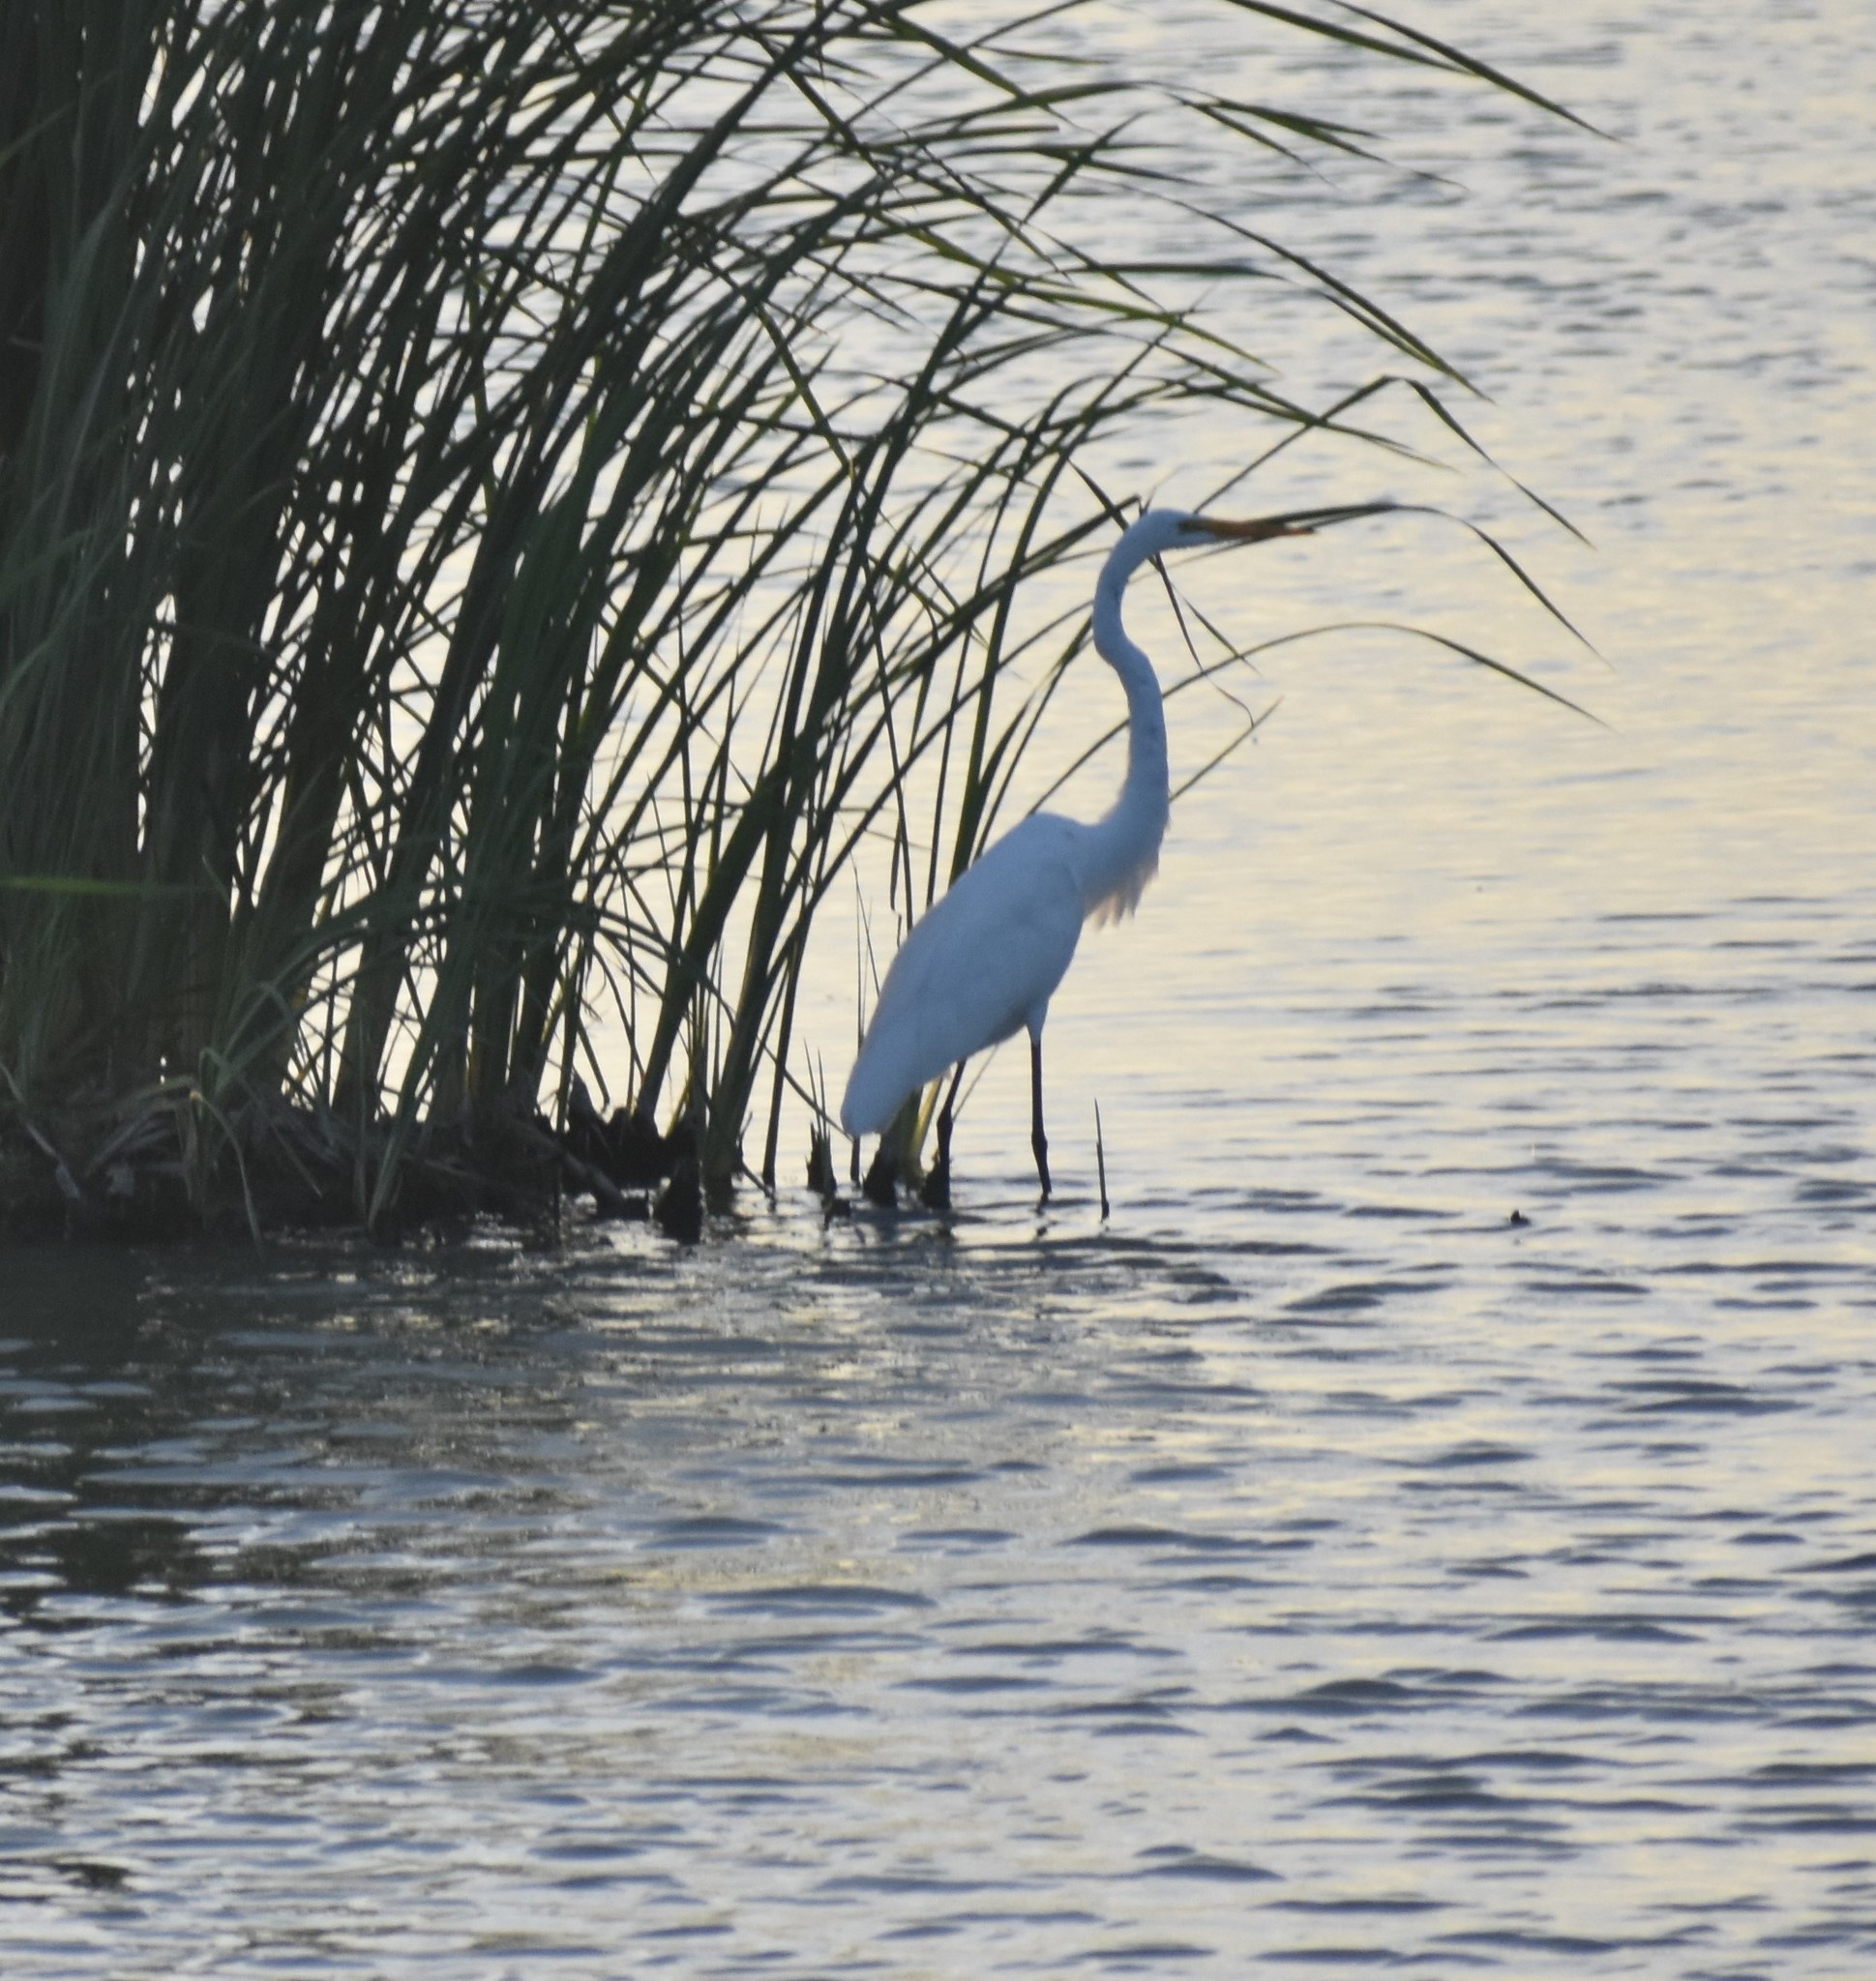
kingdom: Animalia
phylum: Chordata
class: Aves
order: Pelecaniformes
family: Ardeidae
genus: Ardea
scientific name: Ardea alba
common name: Great egret
